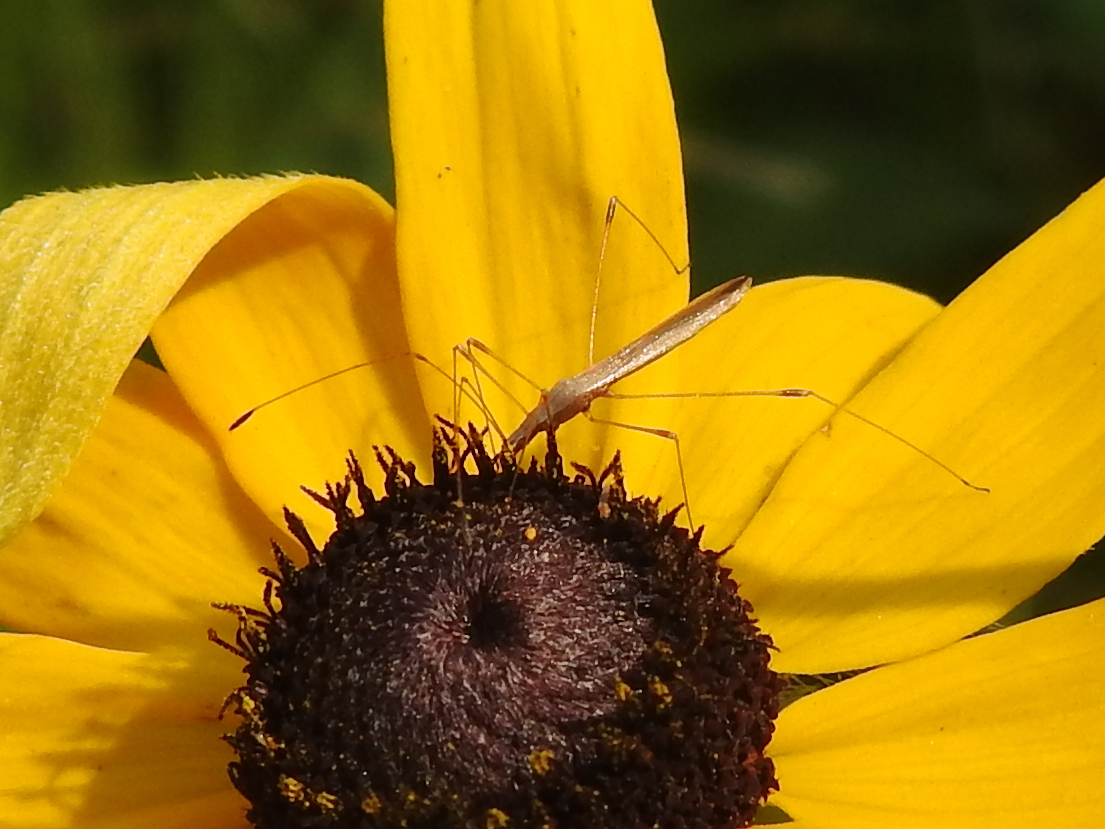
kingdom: Animalia
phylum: Arthropoda
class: Insecta
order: Hemiptera
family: Berytidae
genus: Neoneides
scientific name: Neoneides muticus
